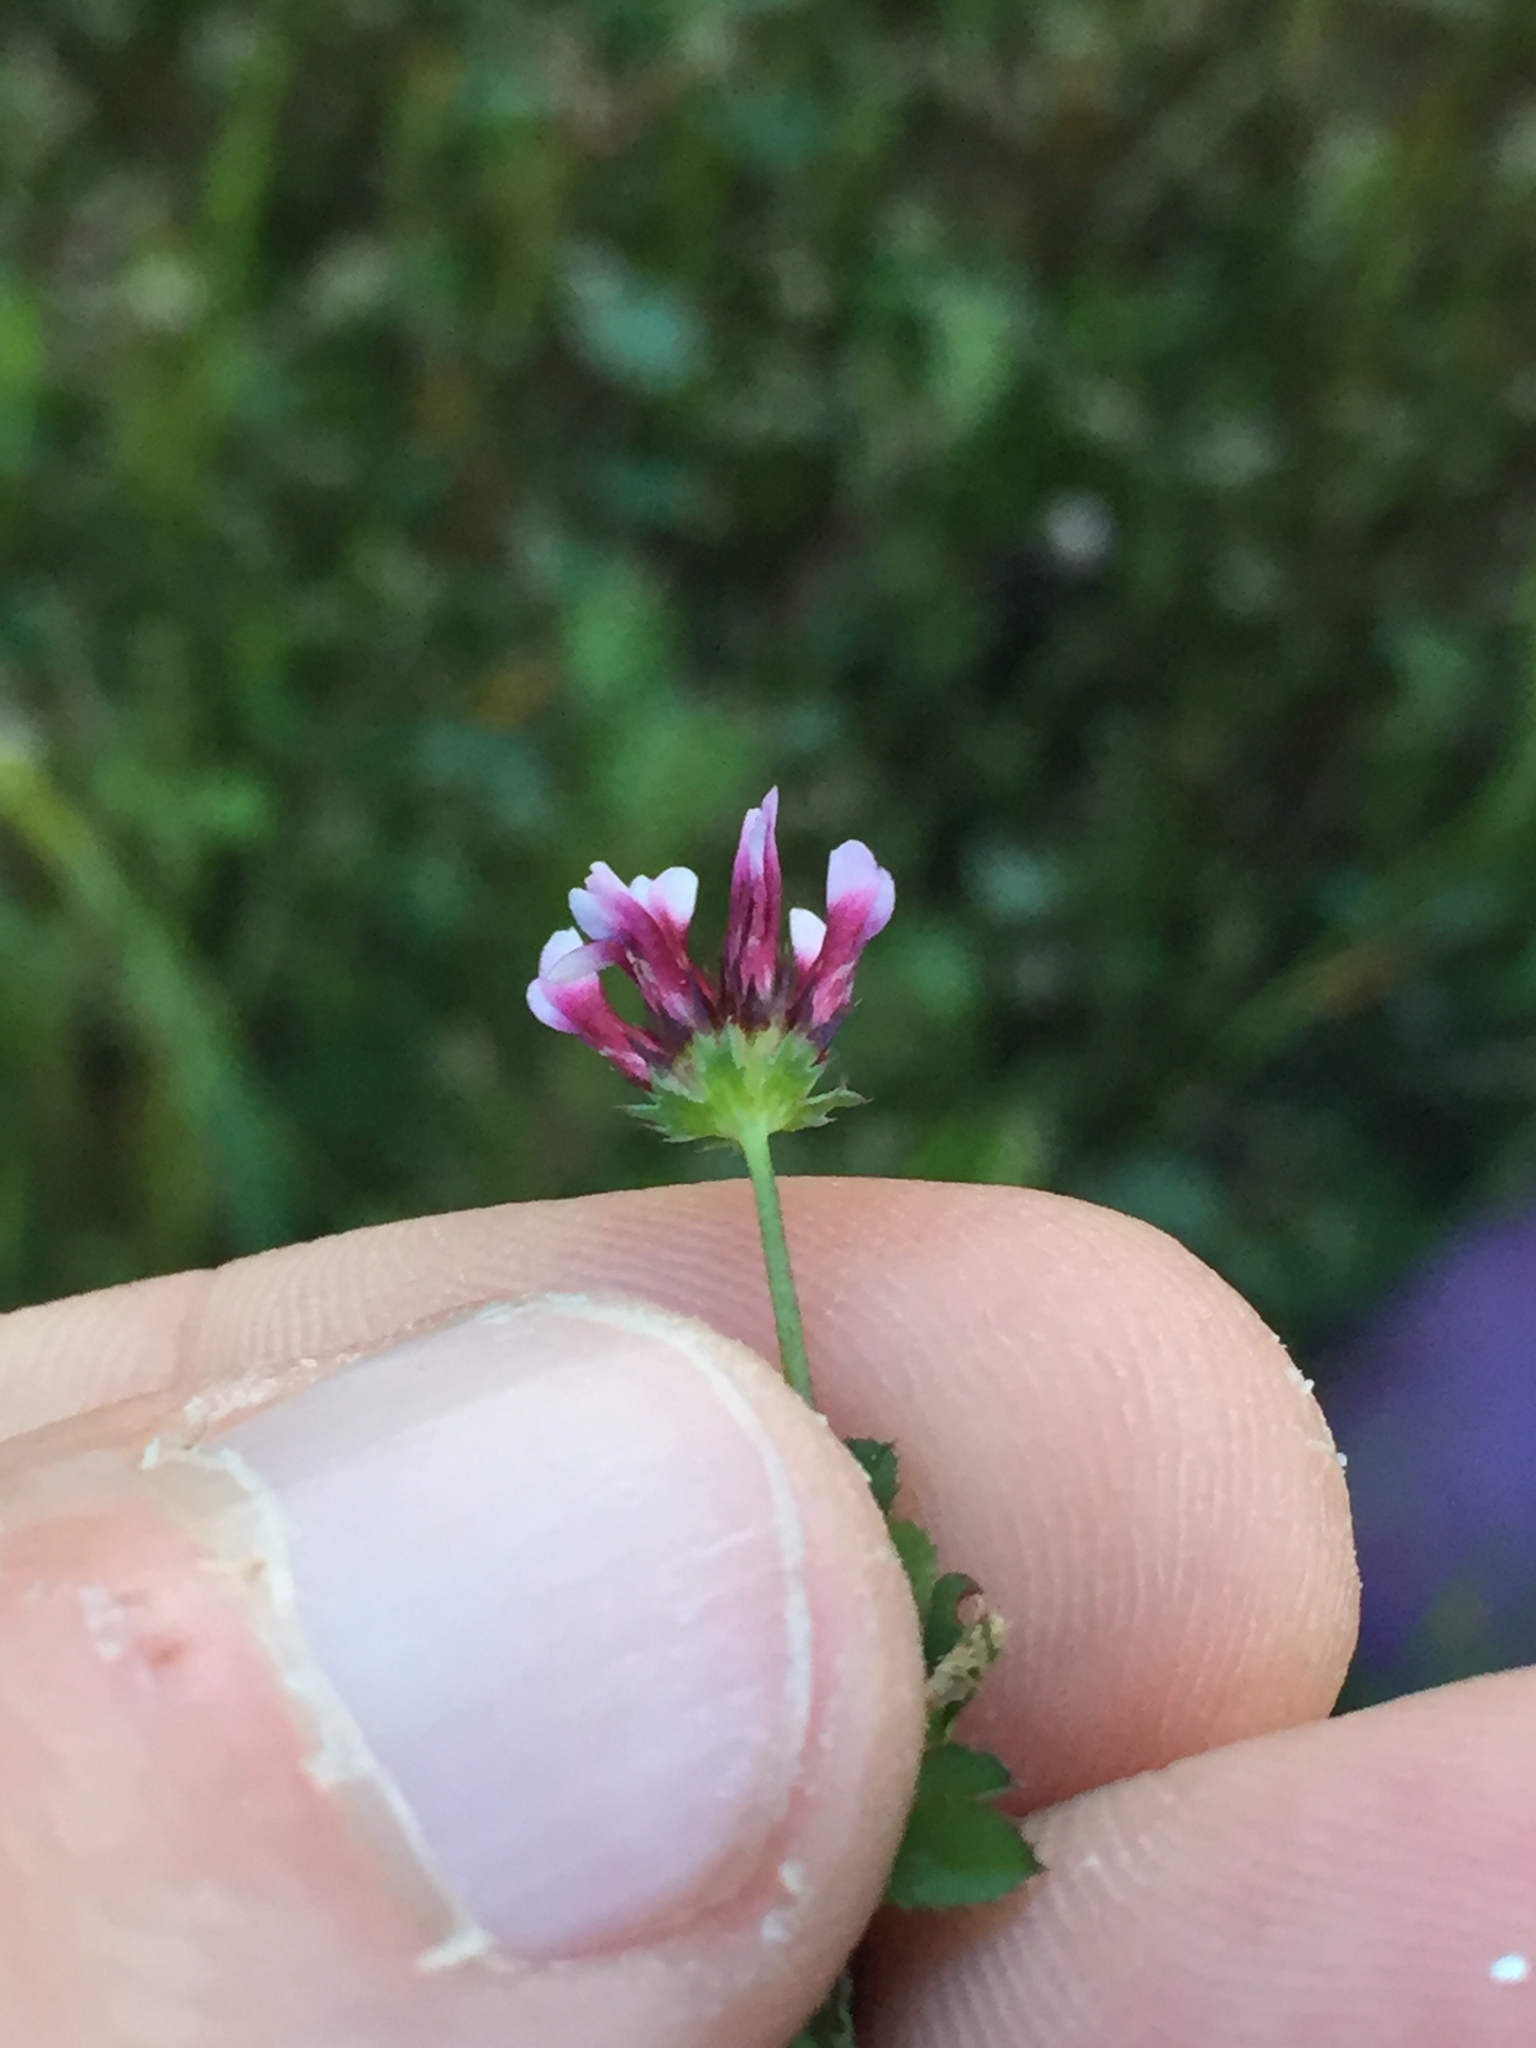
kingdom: Plantae
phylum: Tracheophyta
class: Magnoliopsida
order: Fabales
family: Fabaceae
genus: Trifolium
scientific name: Trifolium variegatum
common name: Whitetip clover
